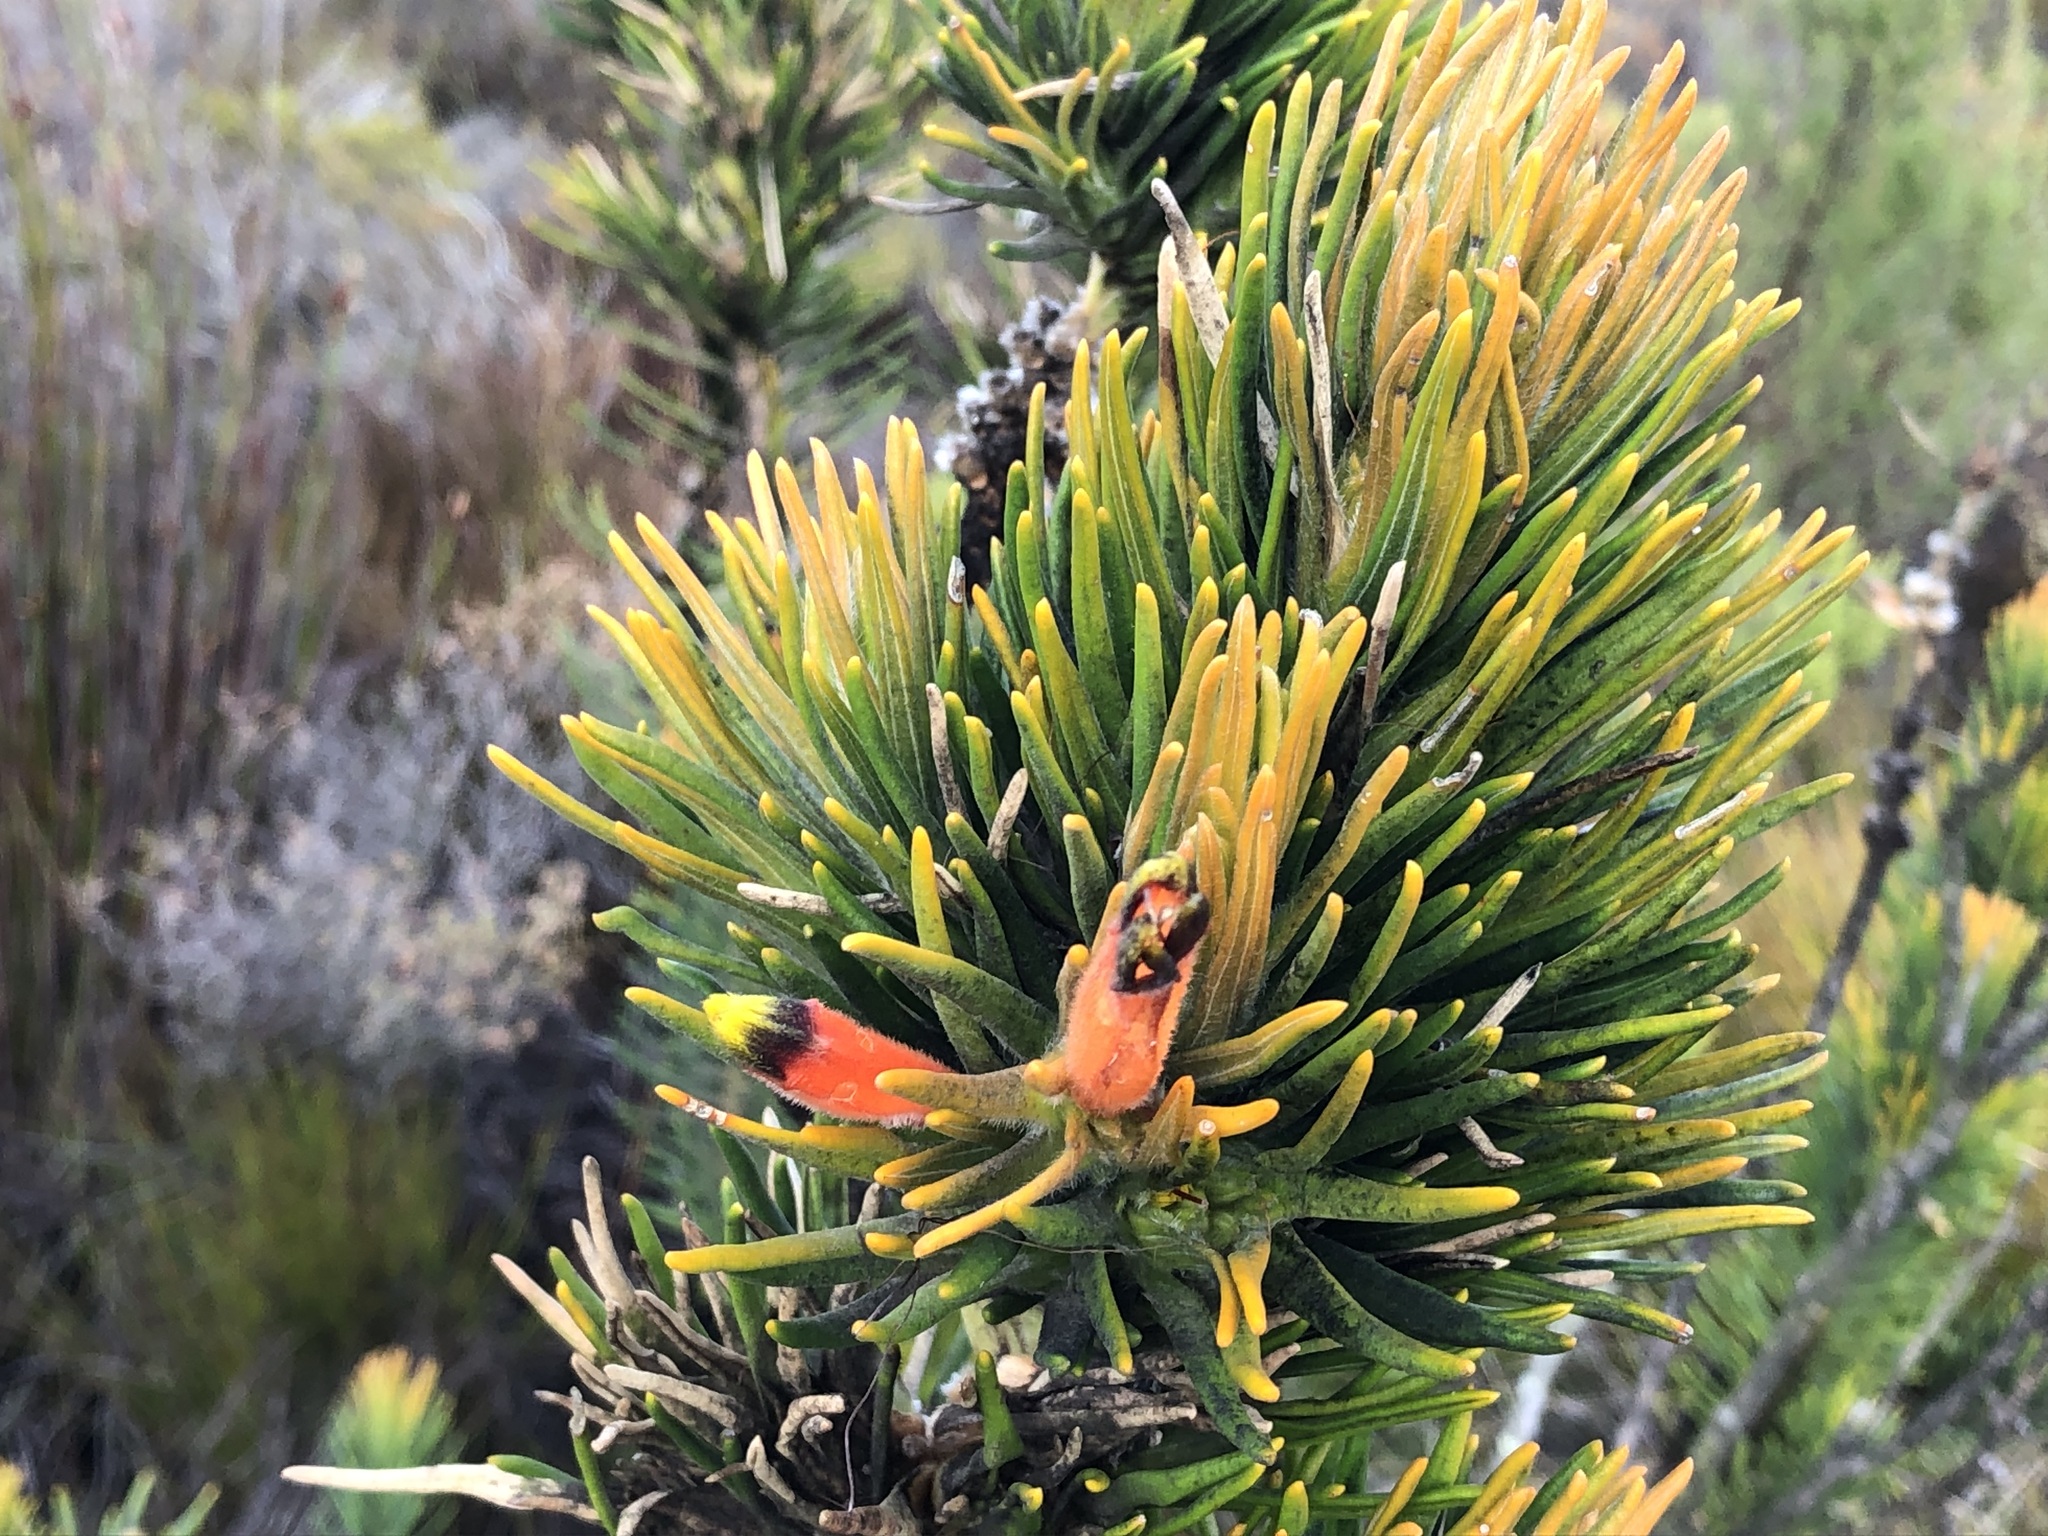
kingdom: Plantae
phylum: Tracheophyta
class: Magnoliopsida
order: Lamiales
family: Stilbaceae
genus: Retzia
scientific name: Retzia capensis
